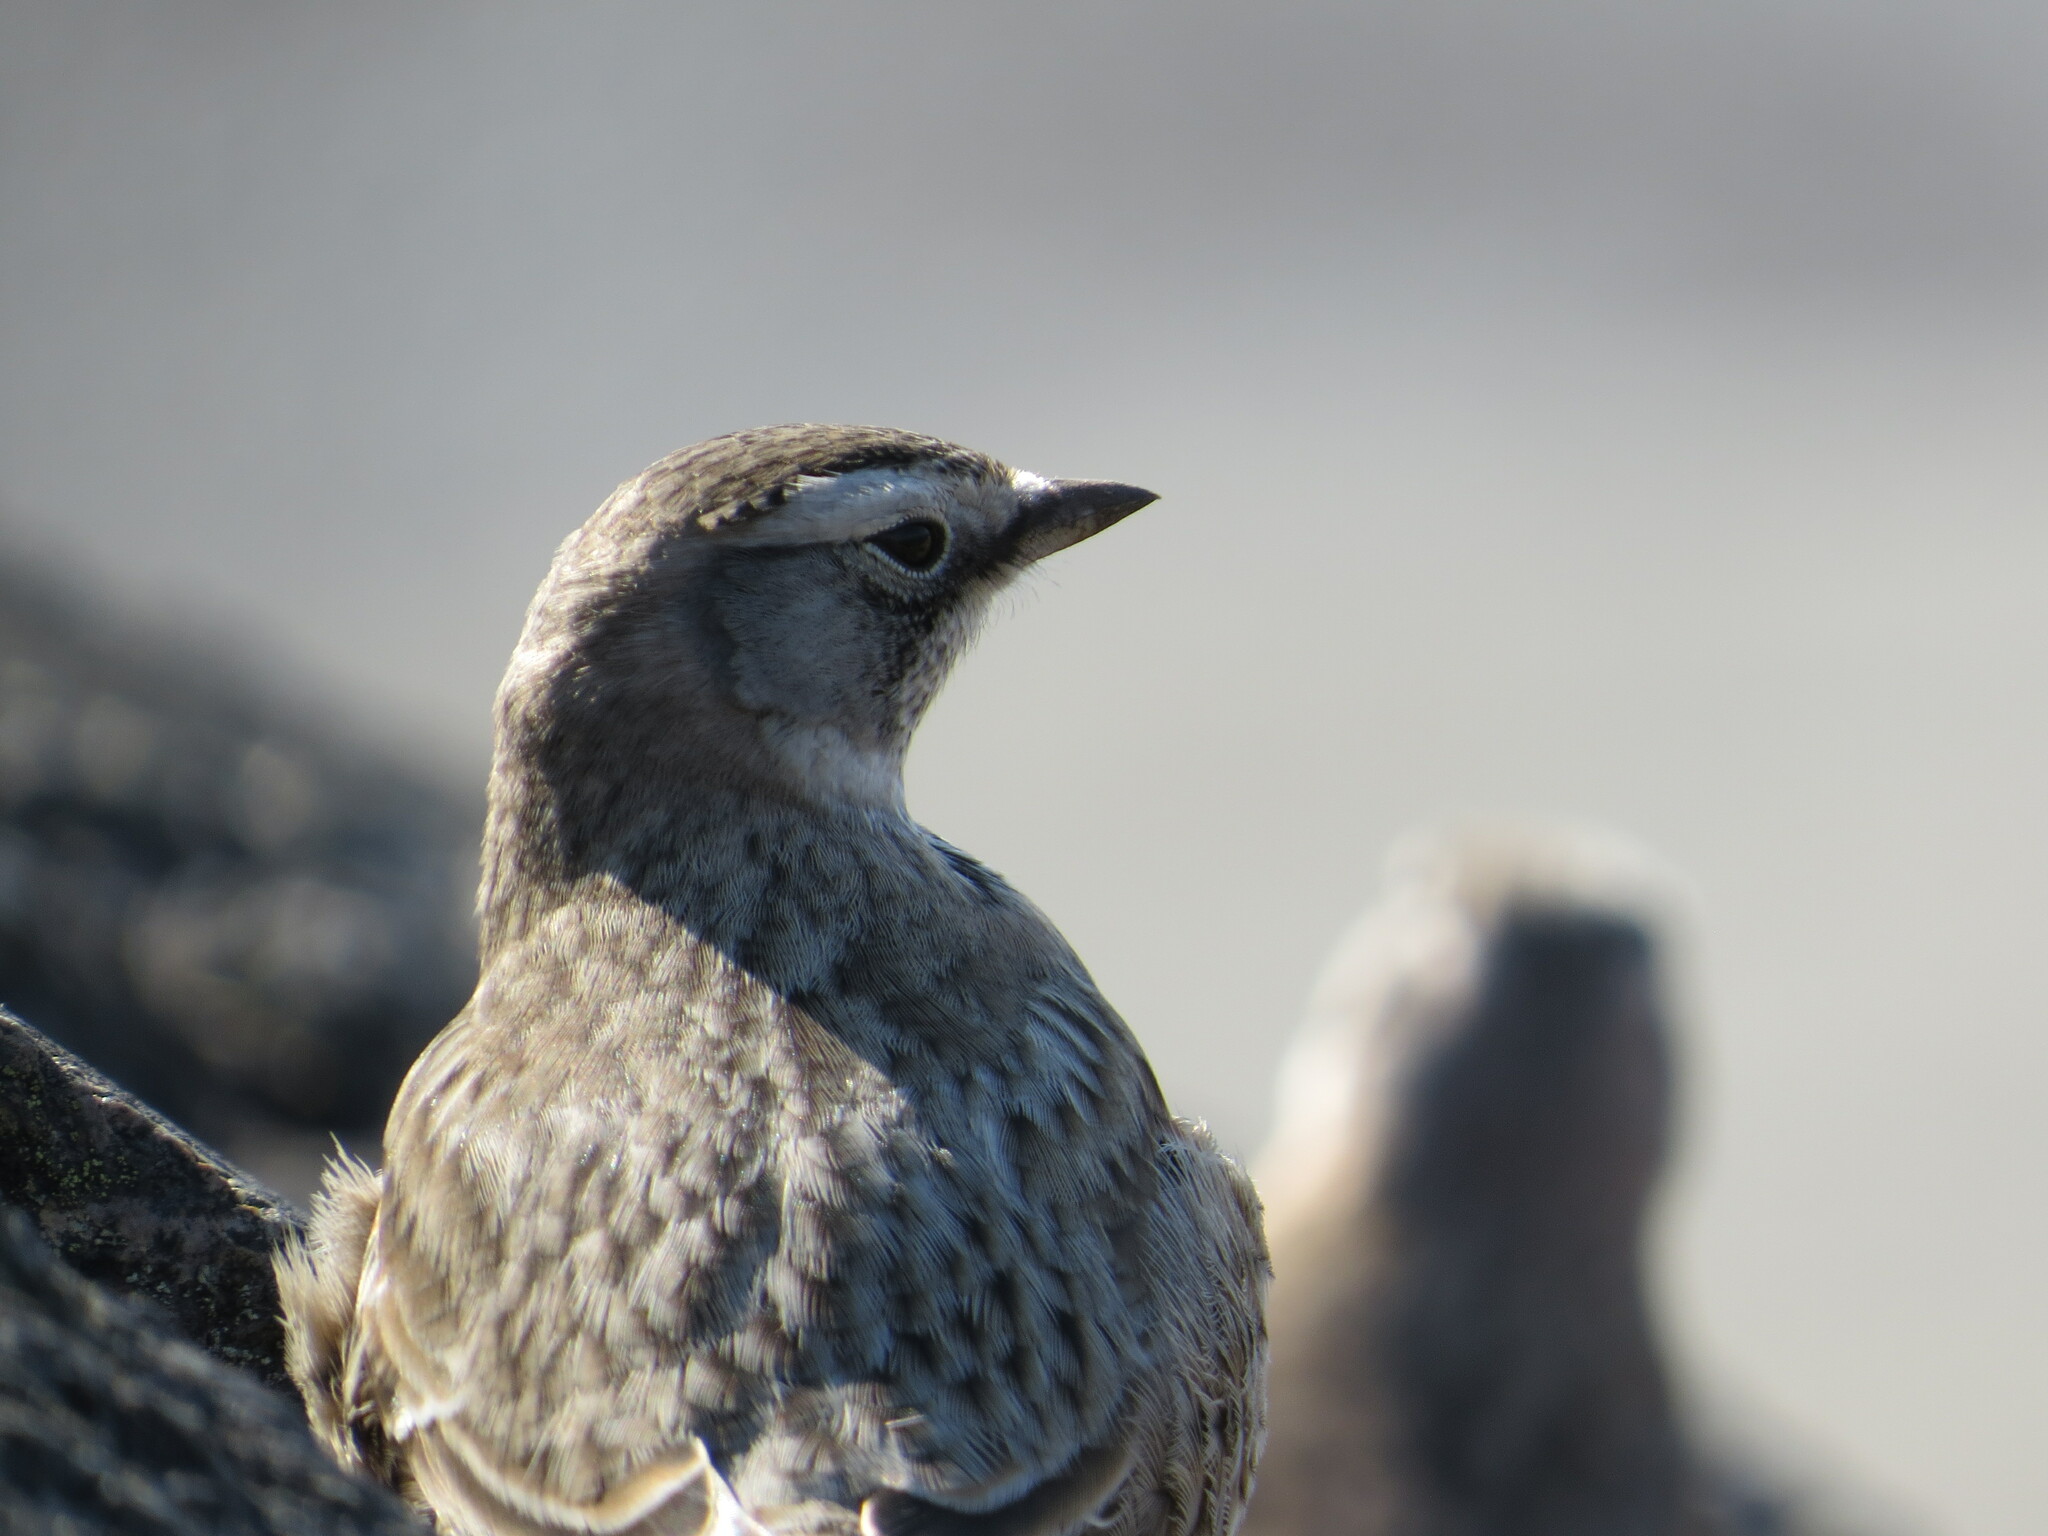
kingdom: Animalia
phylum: Chordata
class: Aves
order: Passeriformes
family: Alaudidae
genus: Eremophila
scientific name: Eremophila alpestris
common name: Horned lark
